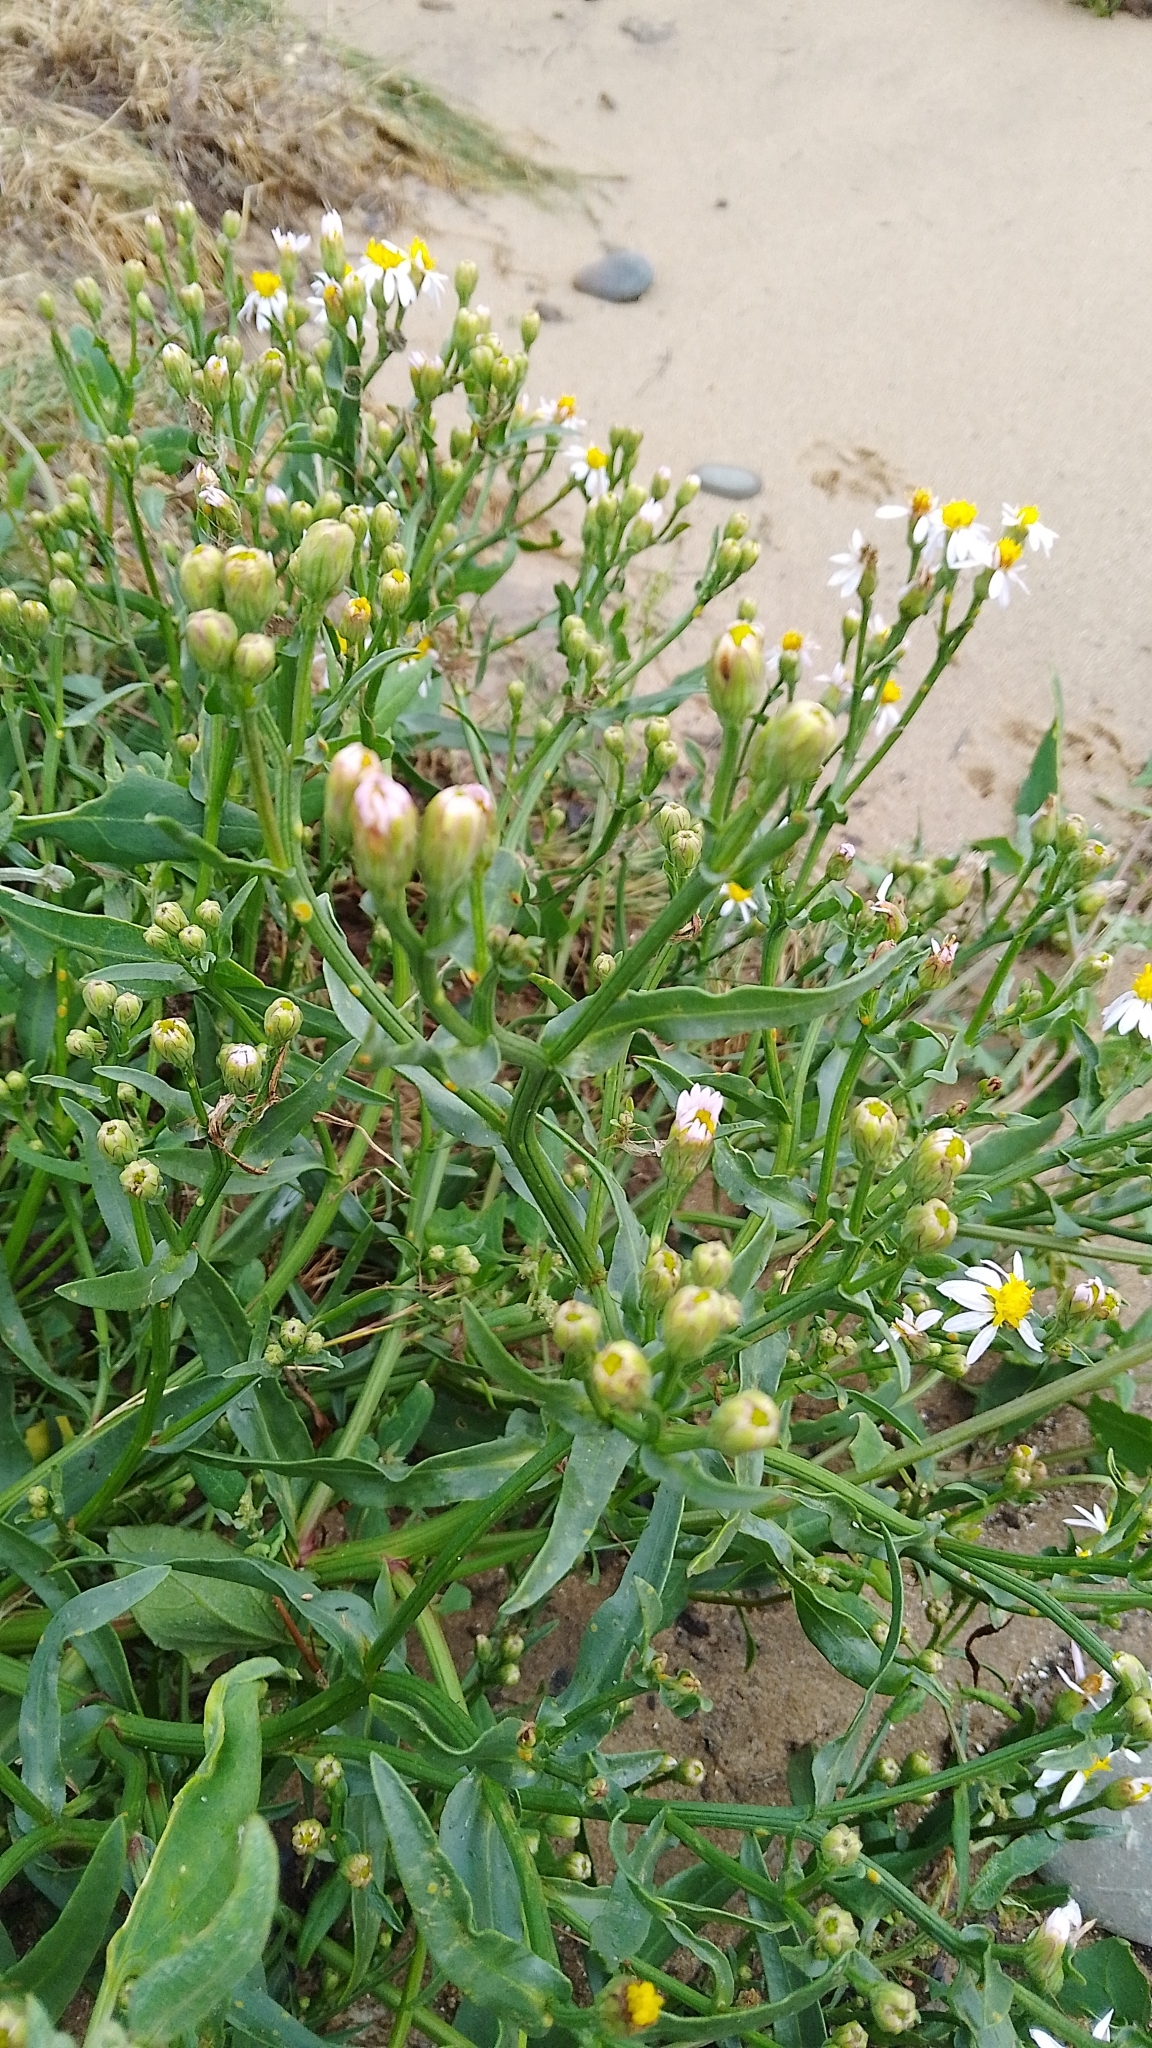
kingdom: Plantae
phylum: Tracheophyta
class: Magnoliopsida
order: Asterales
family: Asteraceae
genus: Tripolium
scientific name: Tripolium pannonicum
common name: Sea aster
